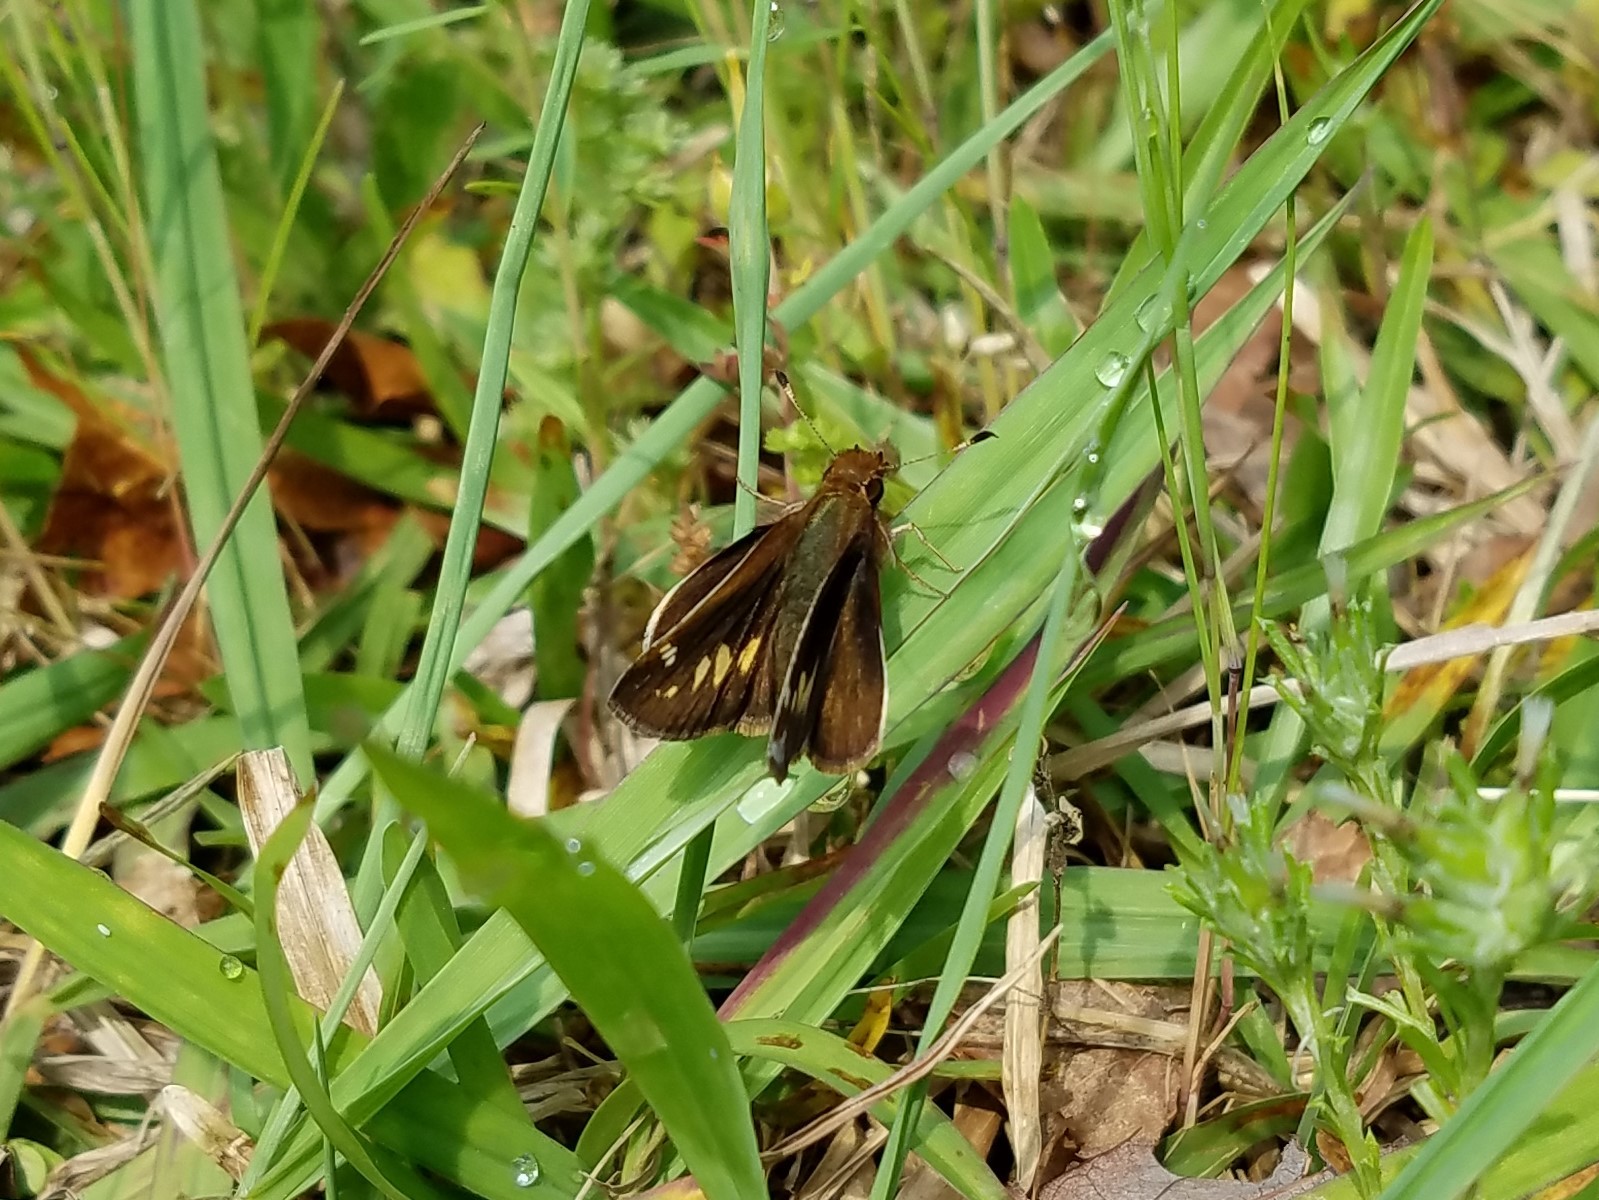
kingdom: Animalia
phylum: Arthropoda
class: Insecta
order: Lepidoptera
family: Hesperiidae
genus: Lon
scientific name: Lon zabulon
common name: Zabulon skipper
